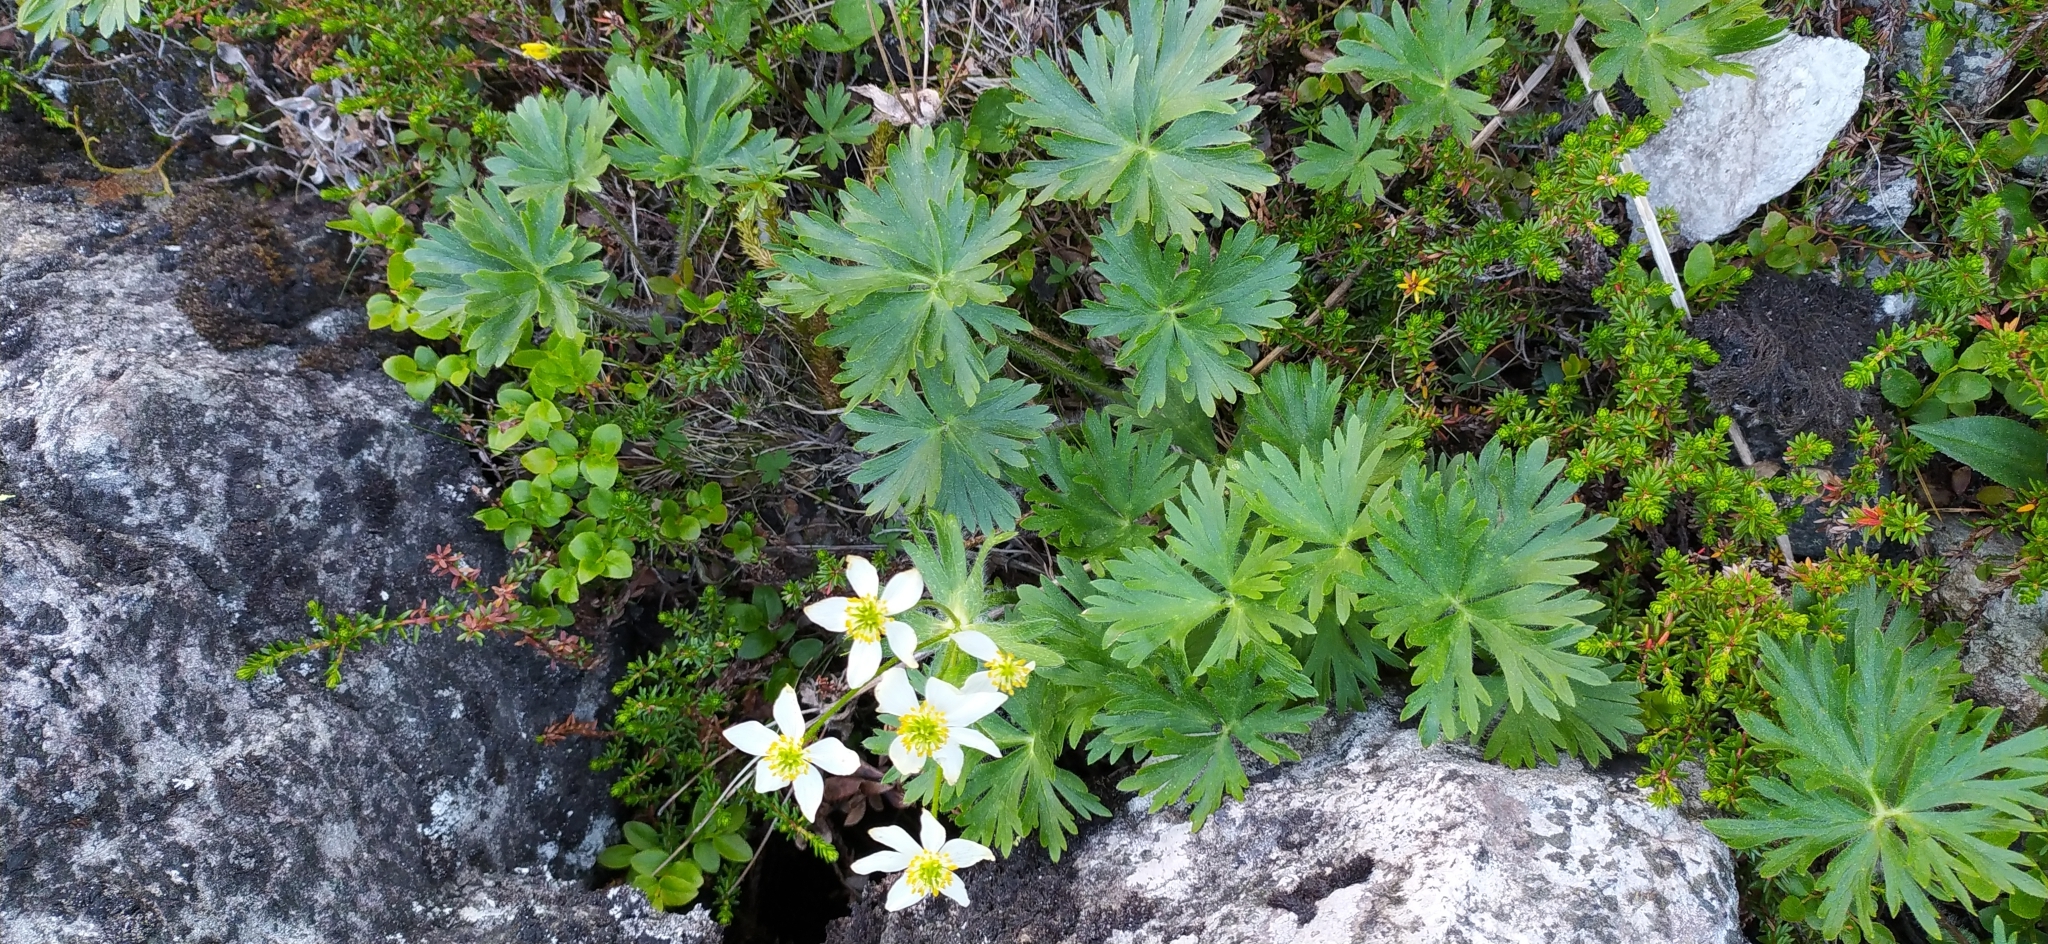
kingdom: Plantae
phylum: Tracheophyta
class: Magnoliopsida
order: Ranunculales
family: Ranunculaceae
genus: Anemonastrum
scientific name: Anemonastrum biarmiense
